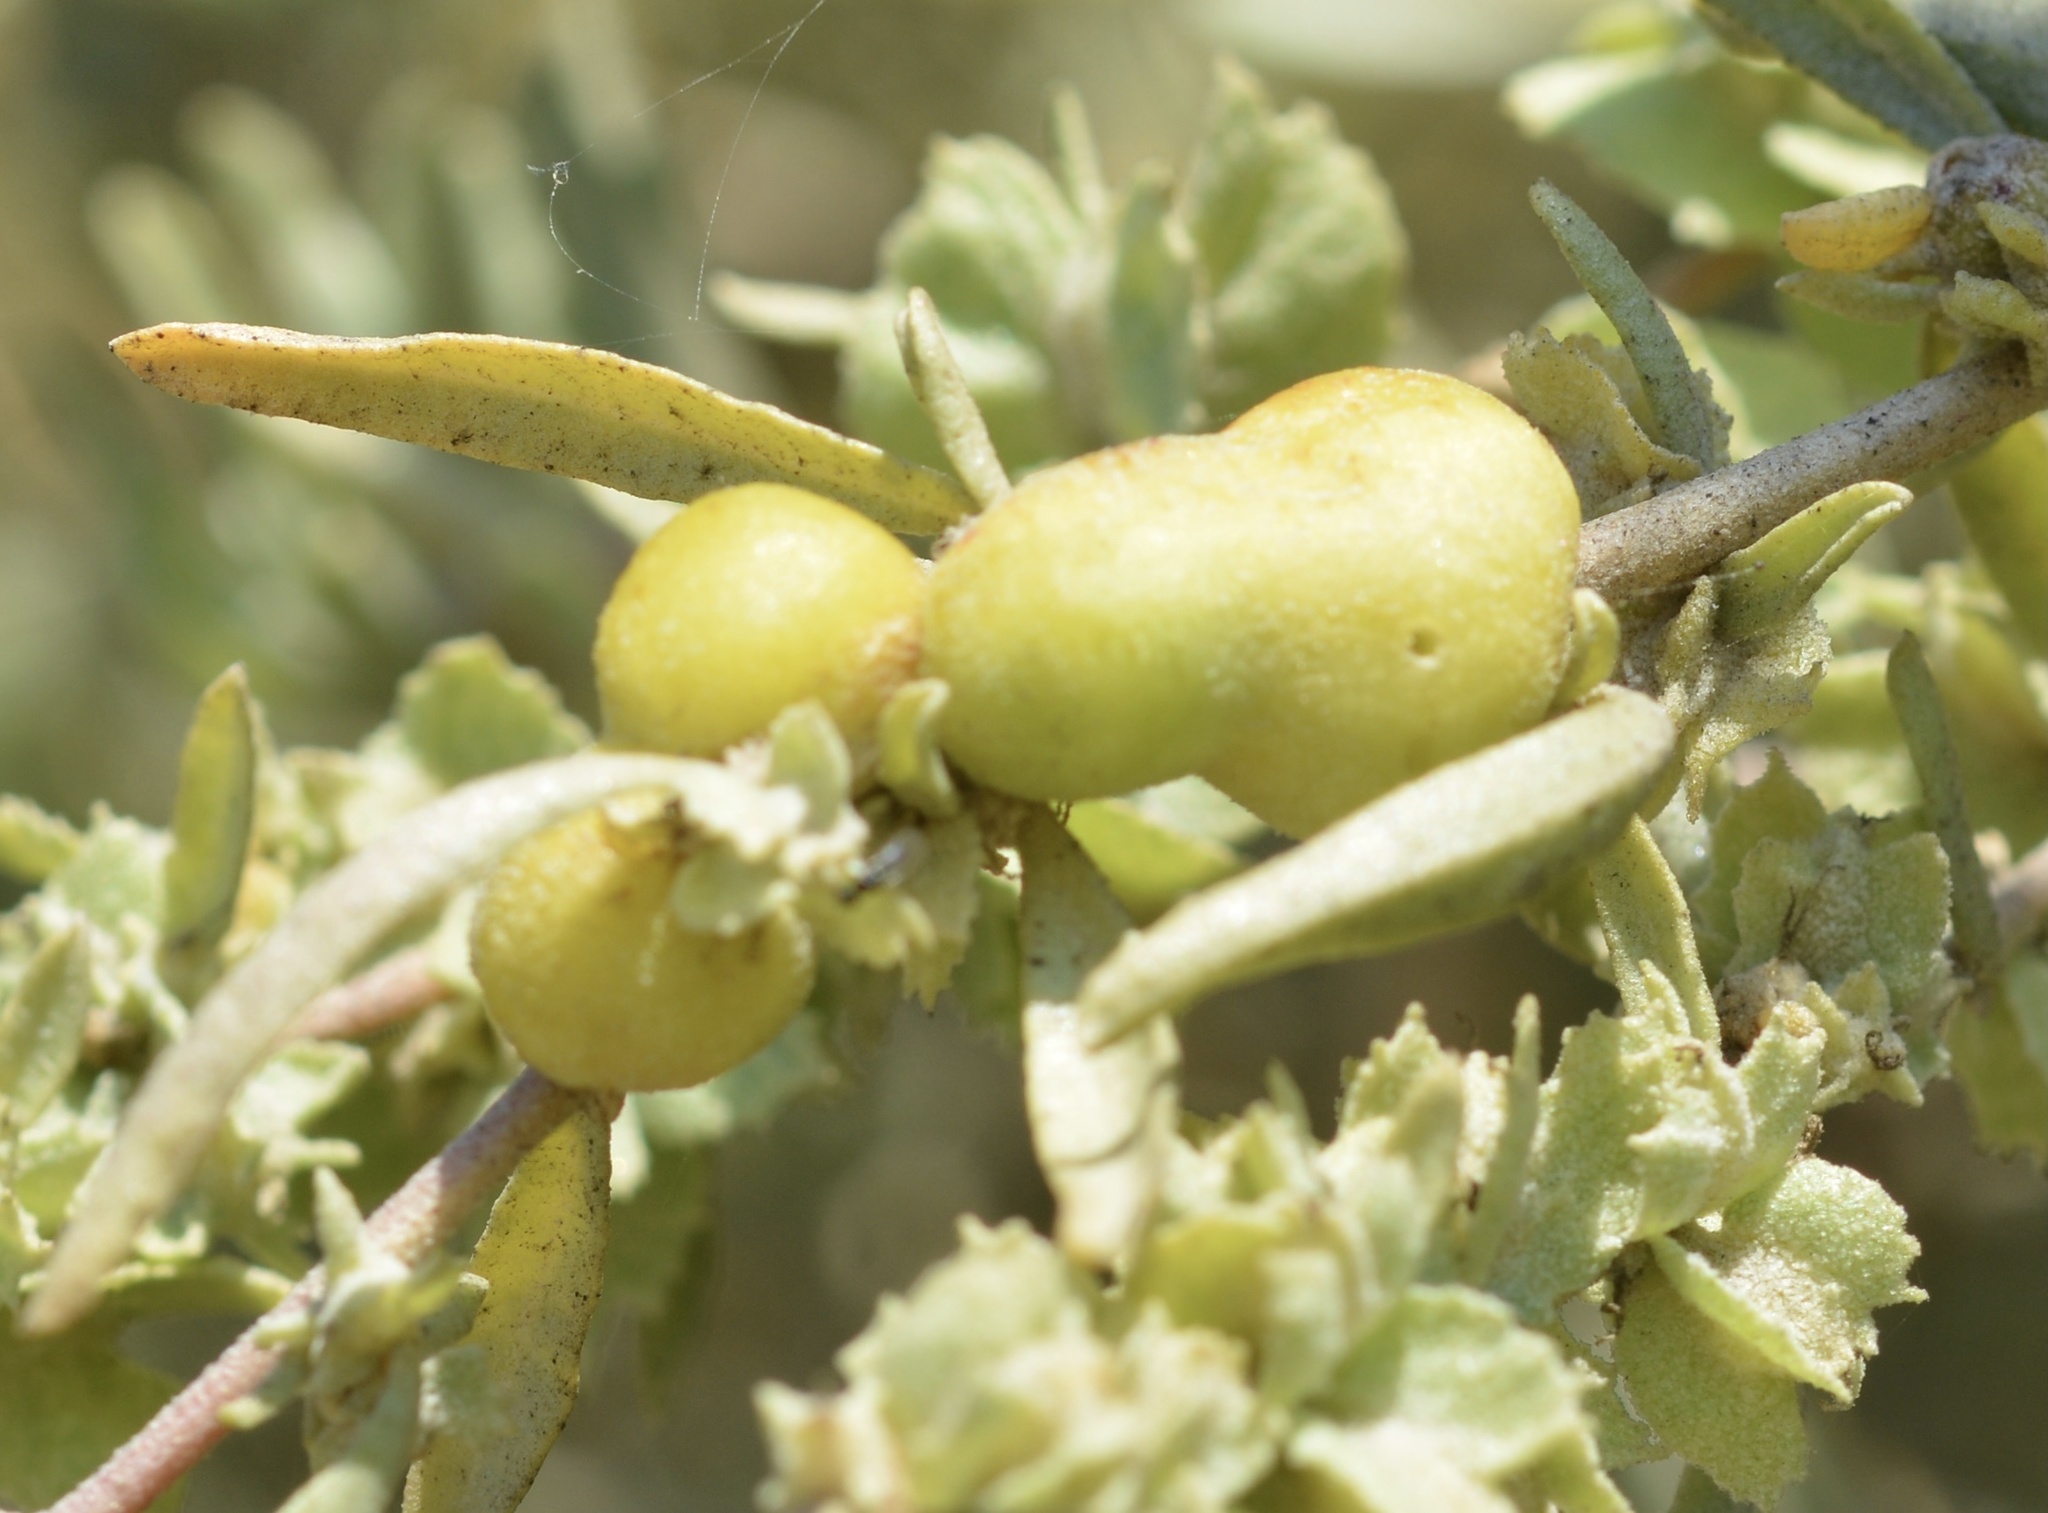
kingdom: Animalia
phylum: Arthropoda
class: Insecta
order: Diptera
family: Cecidomyiidae
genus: Asphondylia
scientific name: Asphondylia atriplicis
